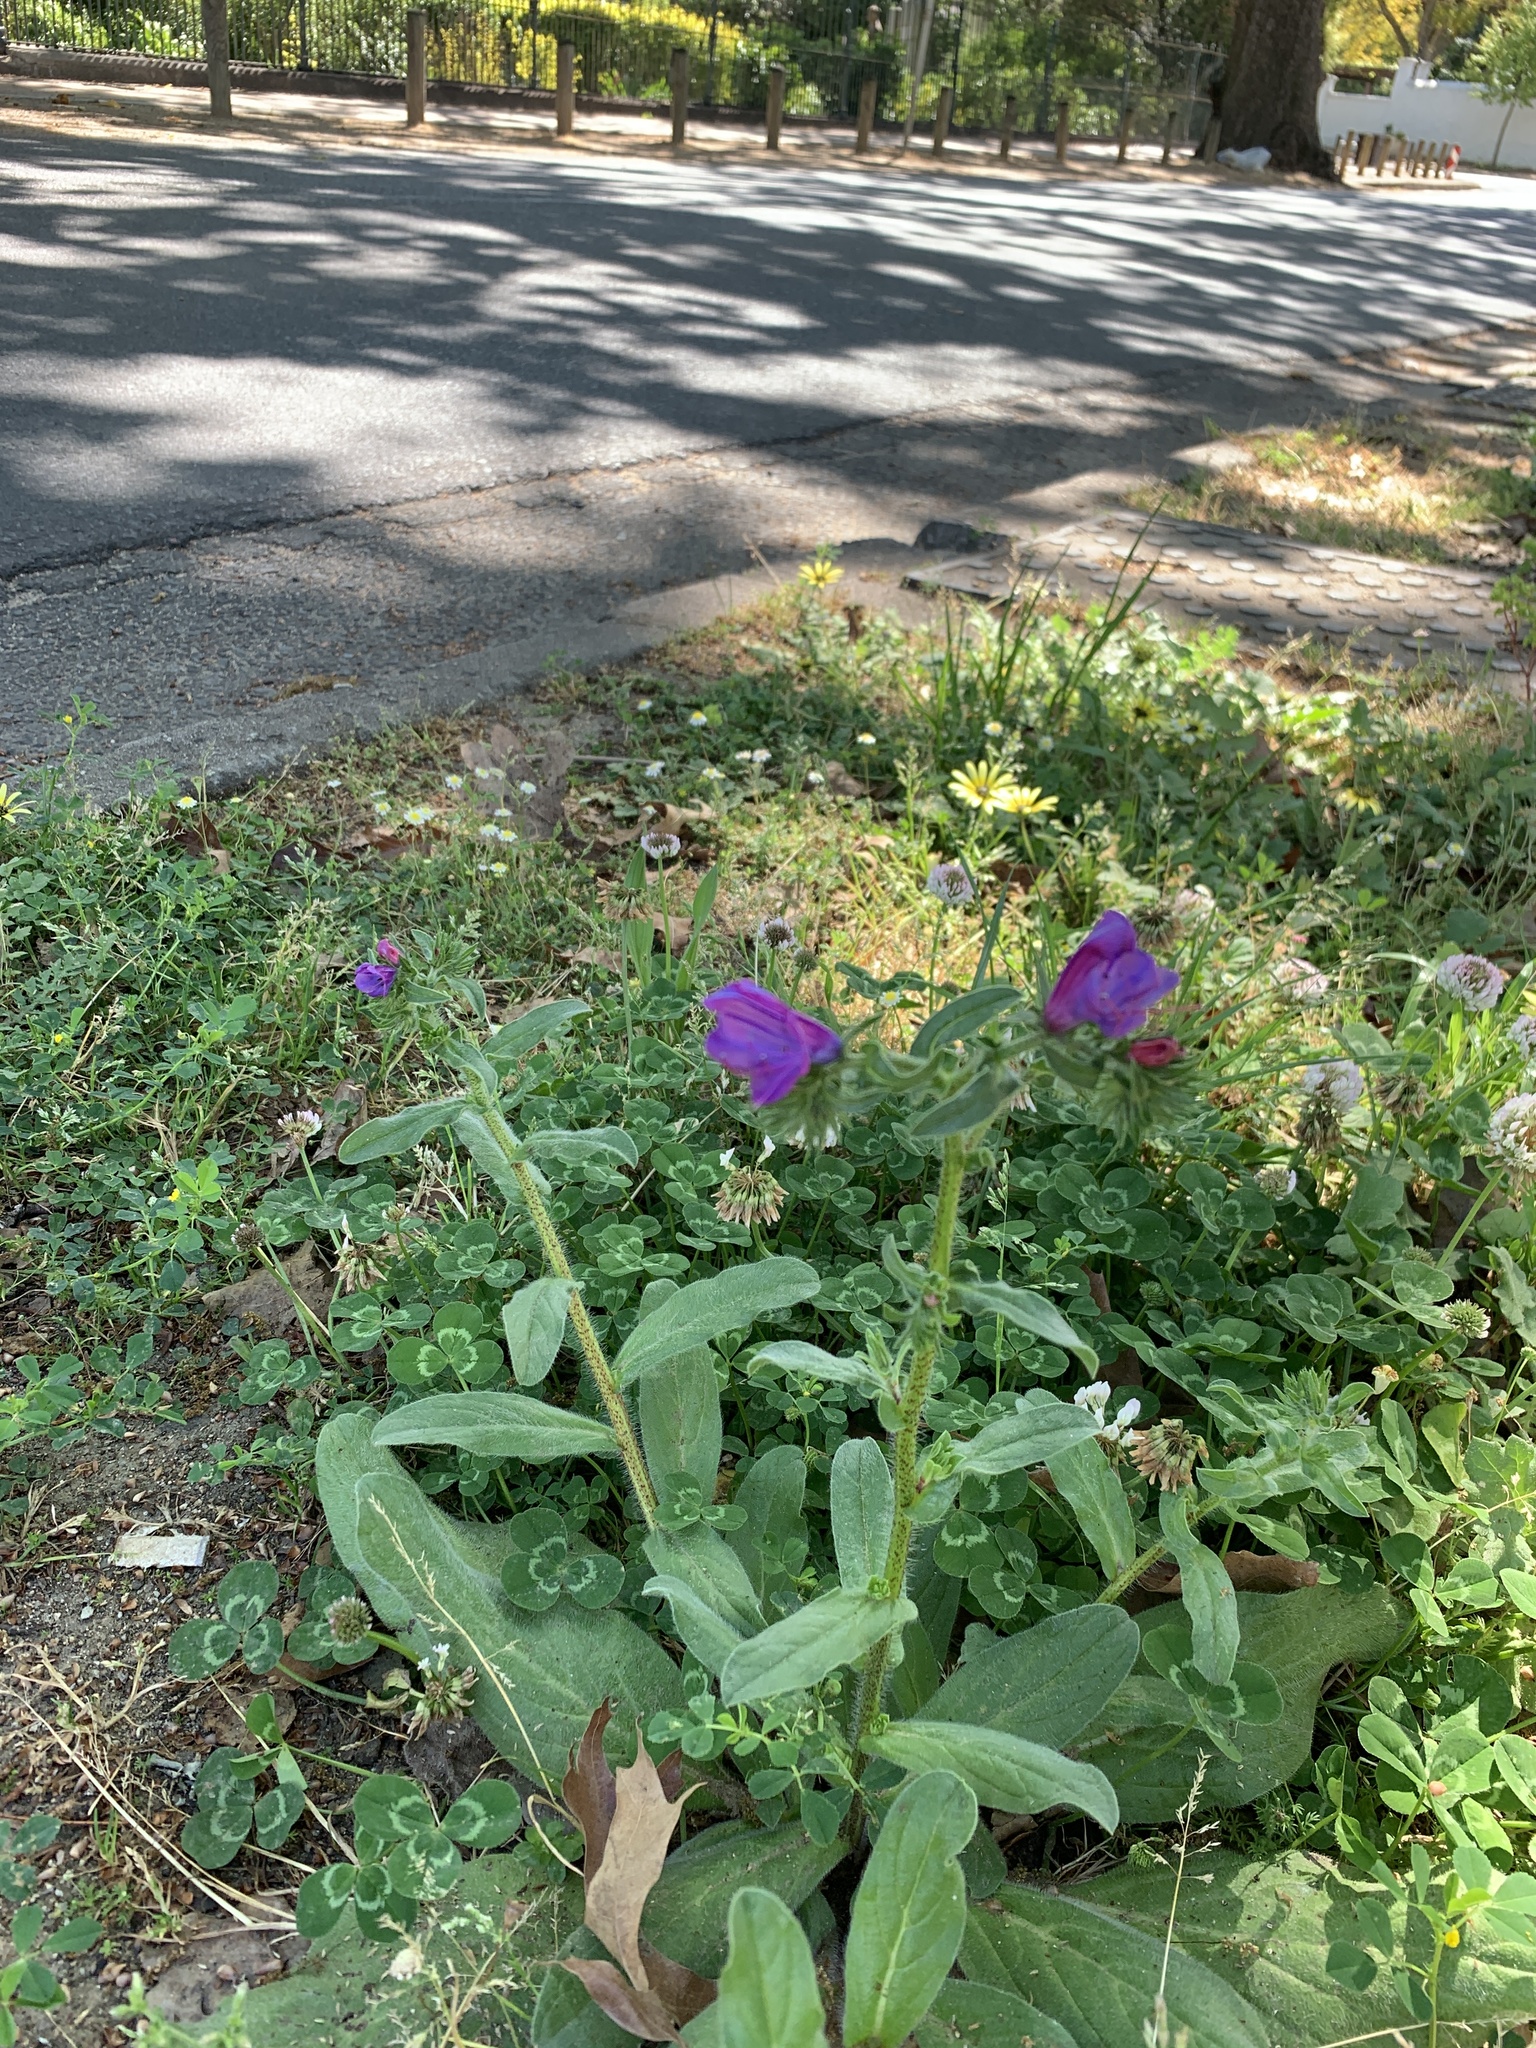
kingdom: Plantae
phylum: Tracheophyta
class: Magnoliopsida
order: Boraginales
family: Boraginaceae
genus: Echium
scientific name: Echium plantagineum
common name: Purple viper's-bugloss
